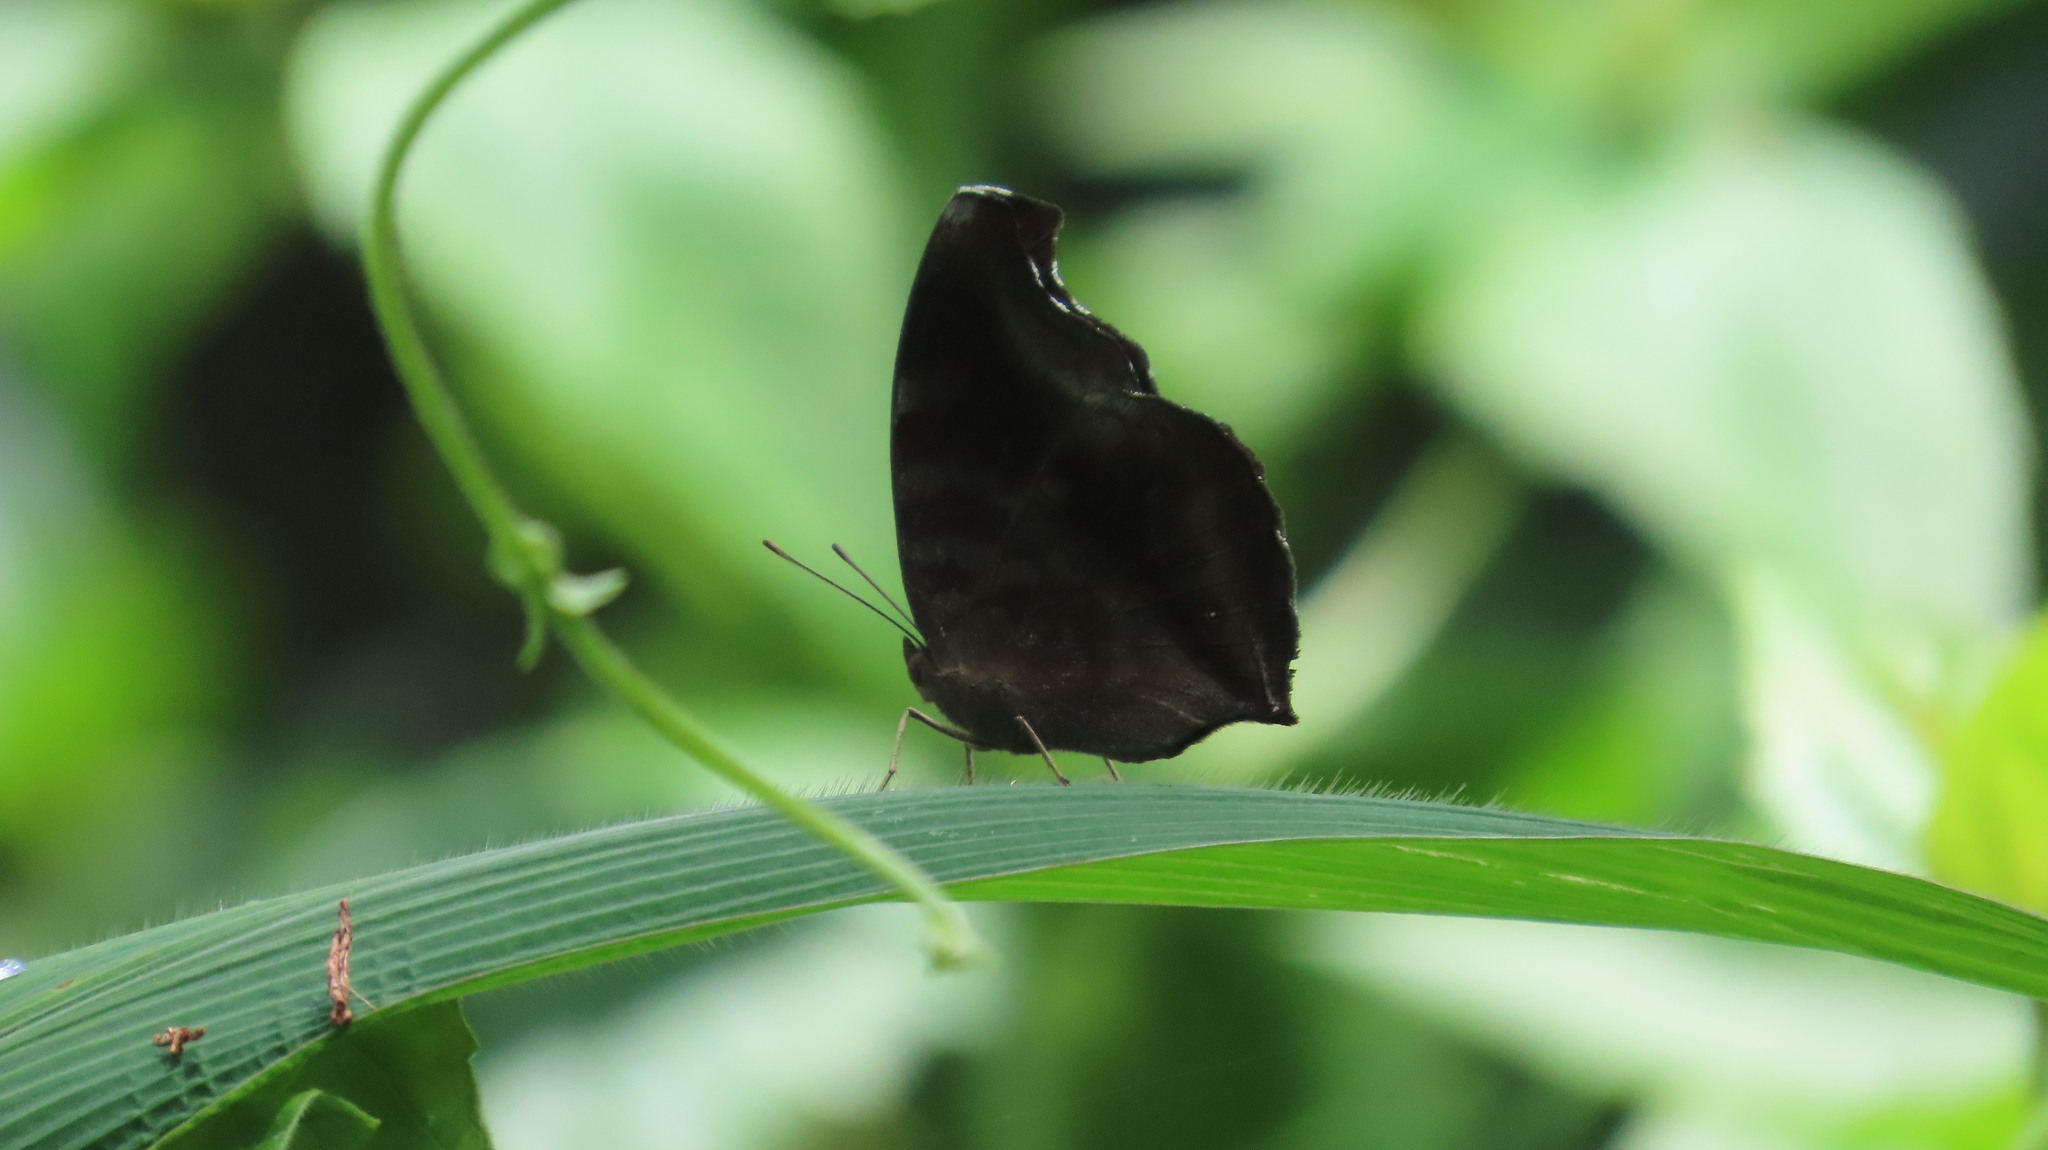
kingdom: Animalia
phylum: Arthropoda
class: Insecta
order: Lepidoptera
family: Nymphalidae
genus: Junonia
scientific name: Junonia iphita
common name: Chocolate pansy
